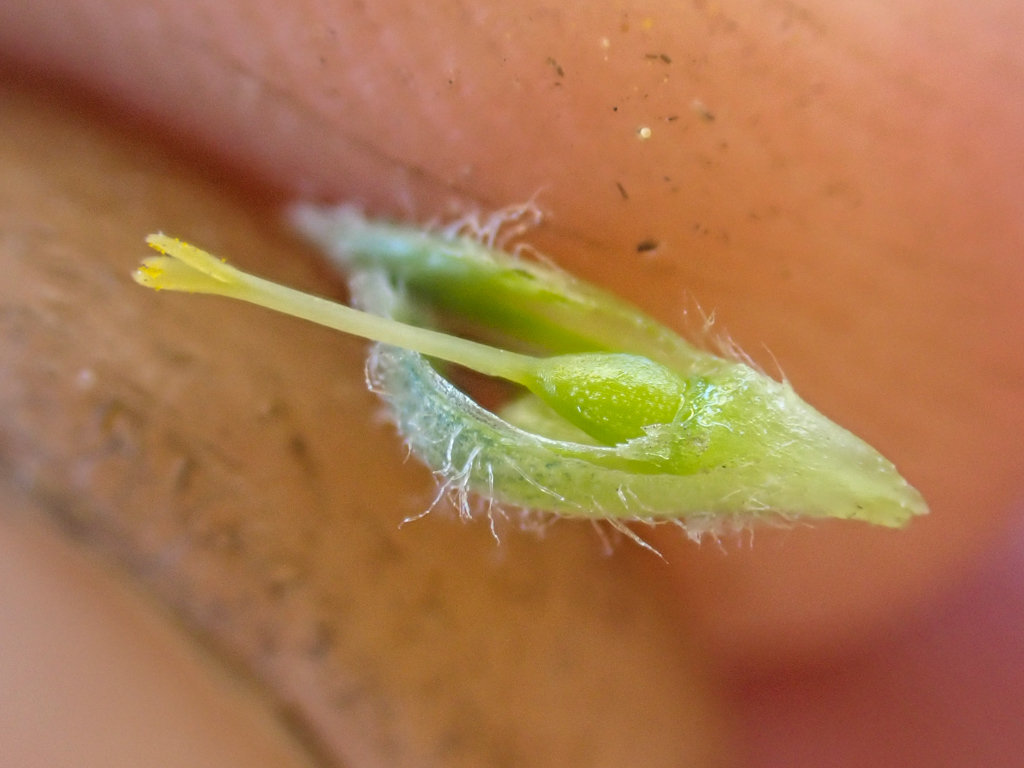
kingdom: Plantae
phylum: Tracheophyta
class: Magnoliopsida
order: Ericales
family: Polemoniaceae
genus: Phlox
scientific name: Phlox hoodii
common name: Moss phlox
